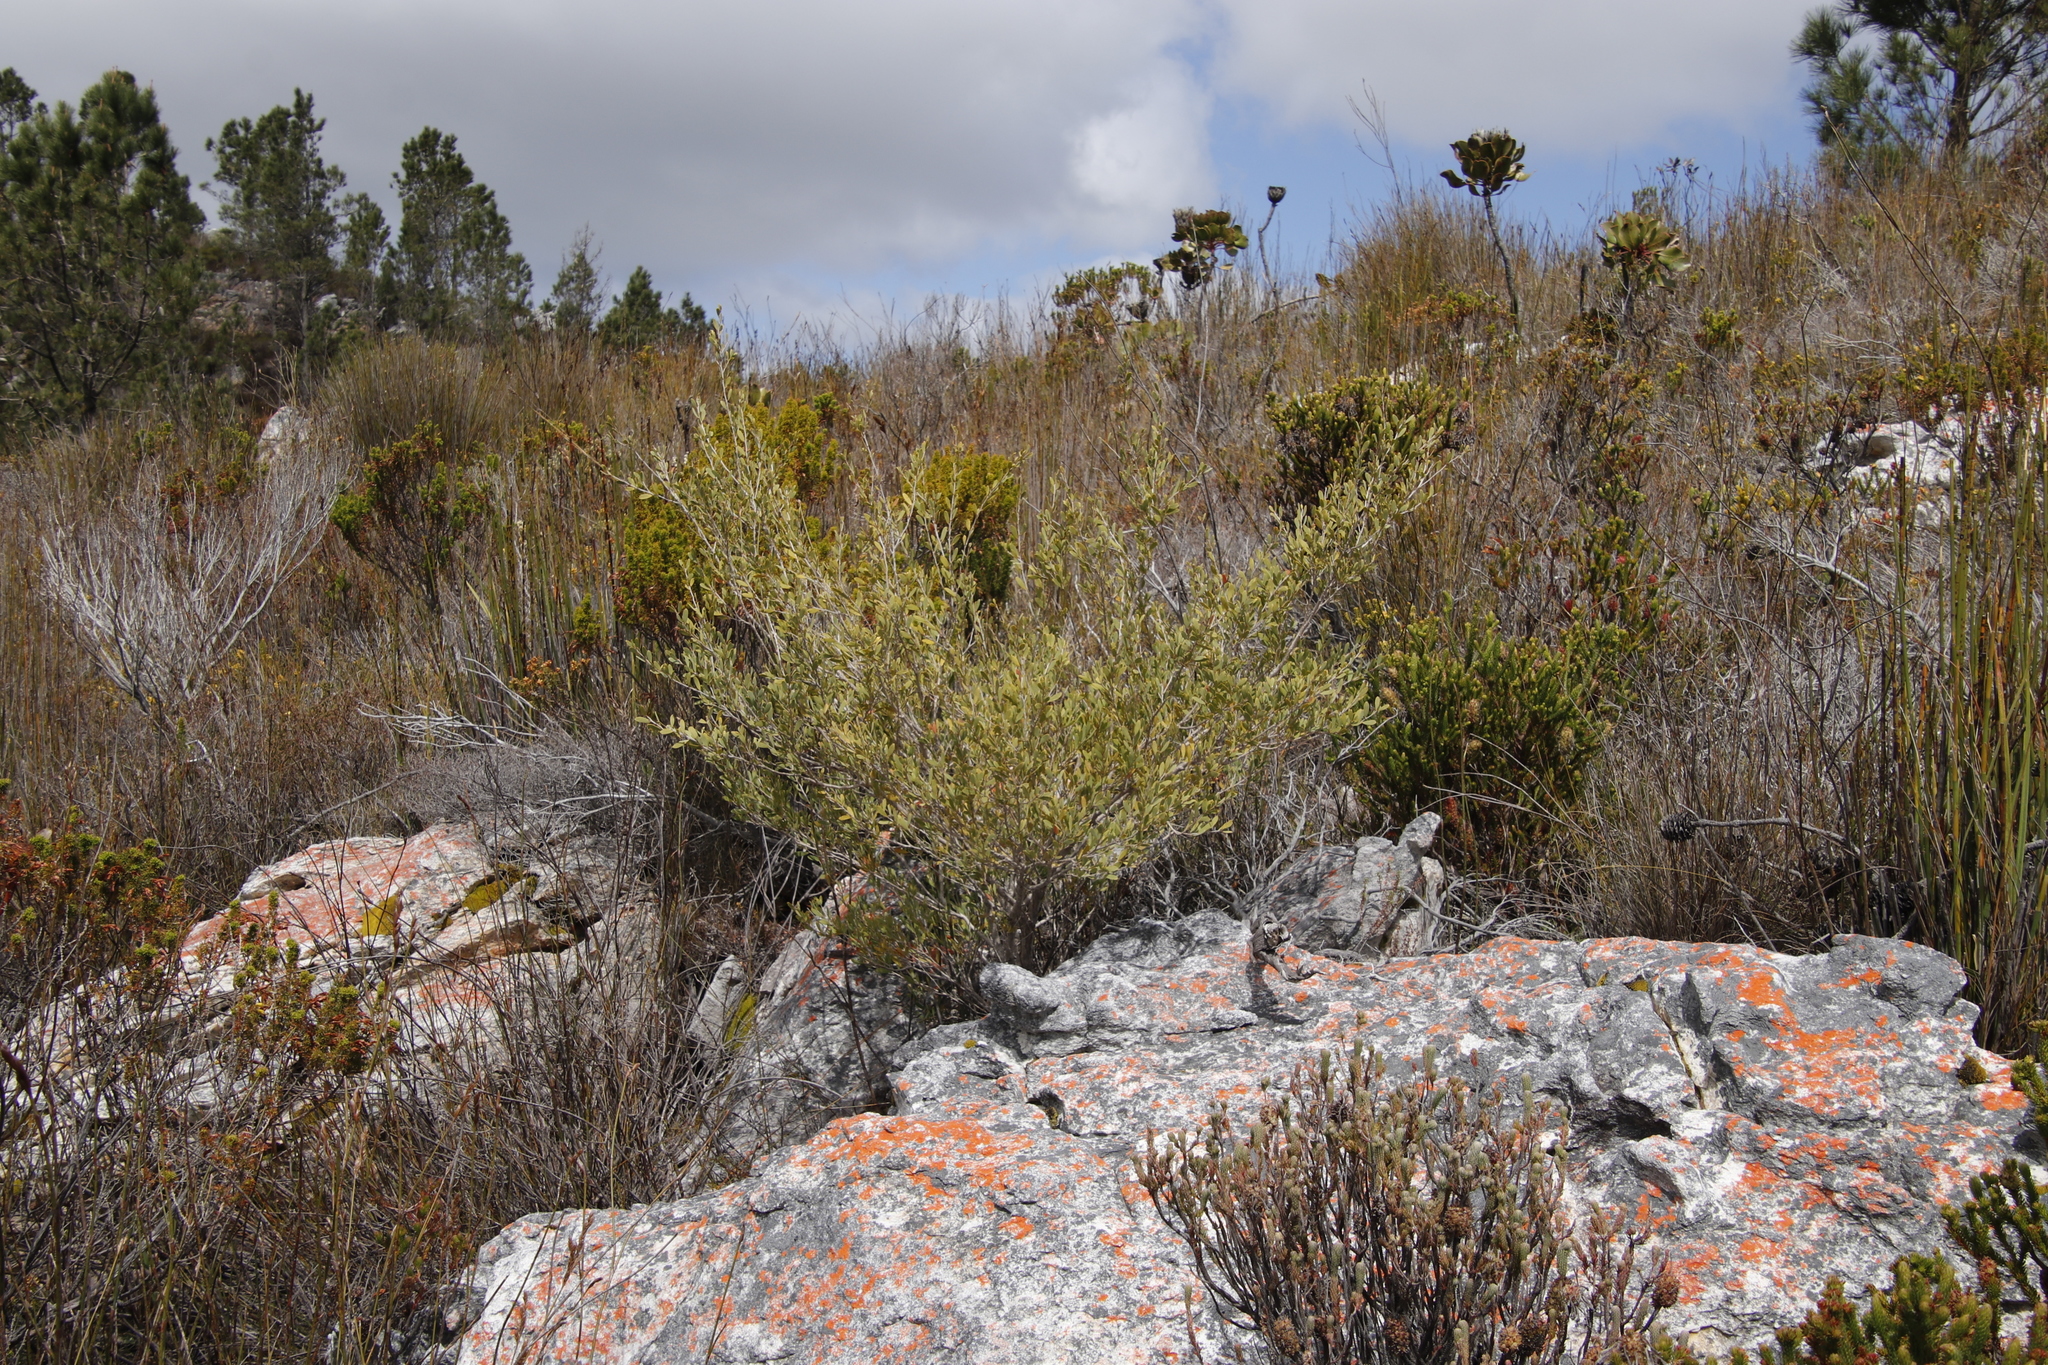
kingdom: Plantae
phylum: Tracheophyta
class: Magnoliopsida
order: Myrtales
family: Myrtaceae
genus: Leptospermum
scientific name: Leptospermum laevigatum
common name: Australian teatree
